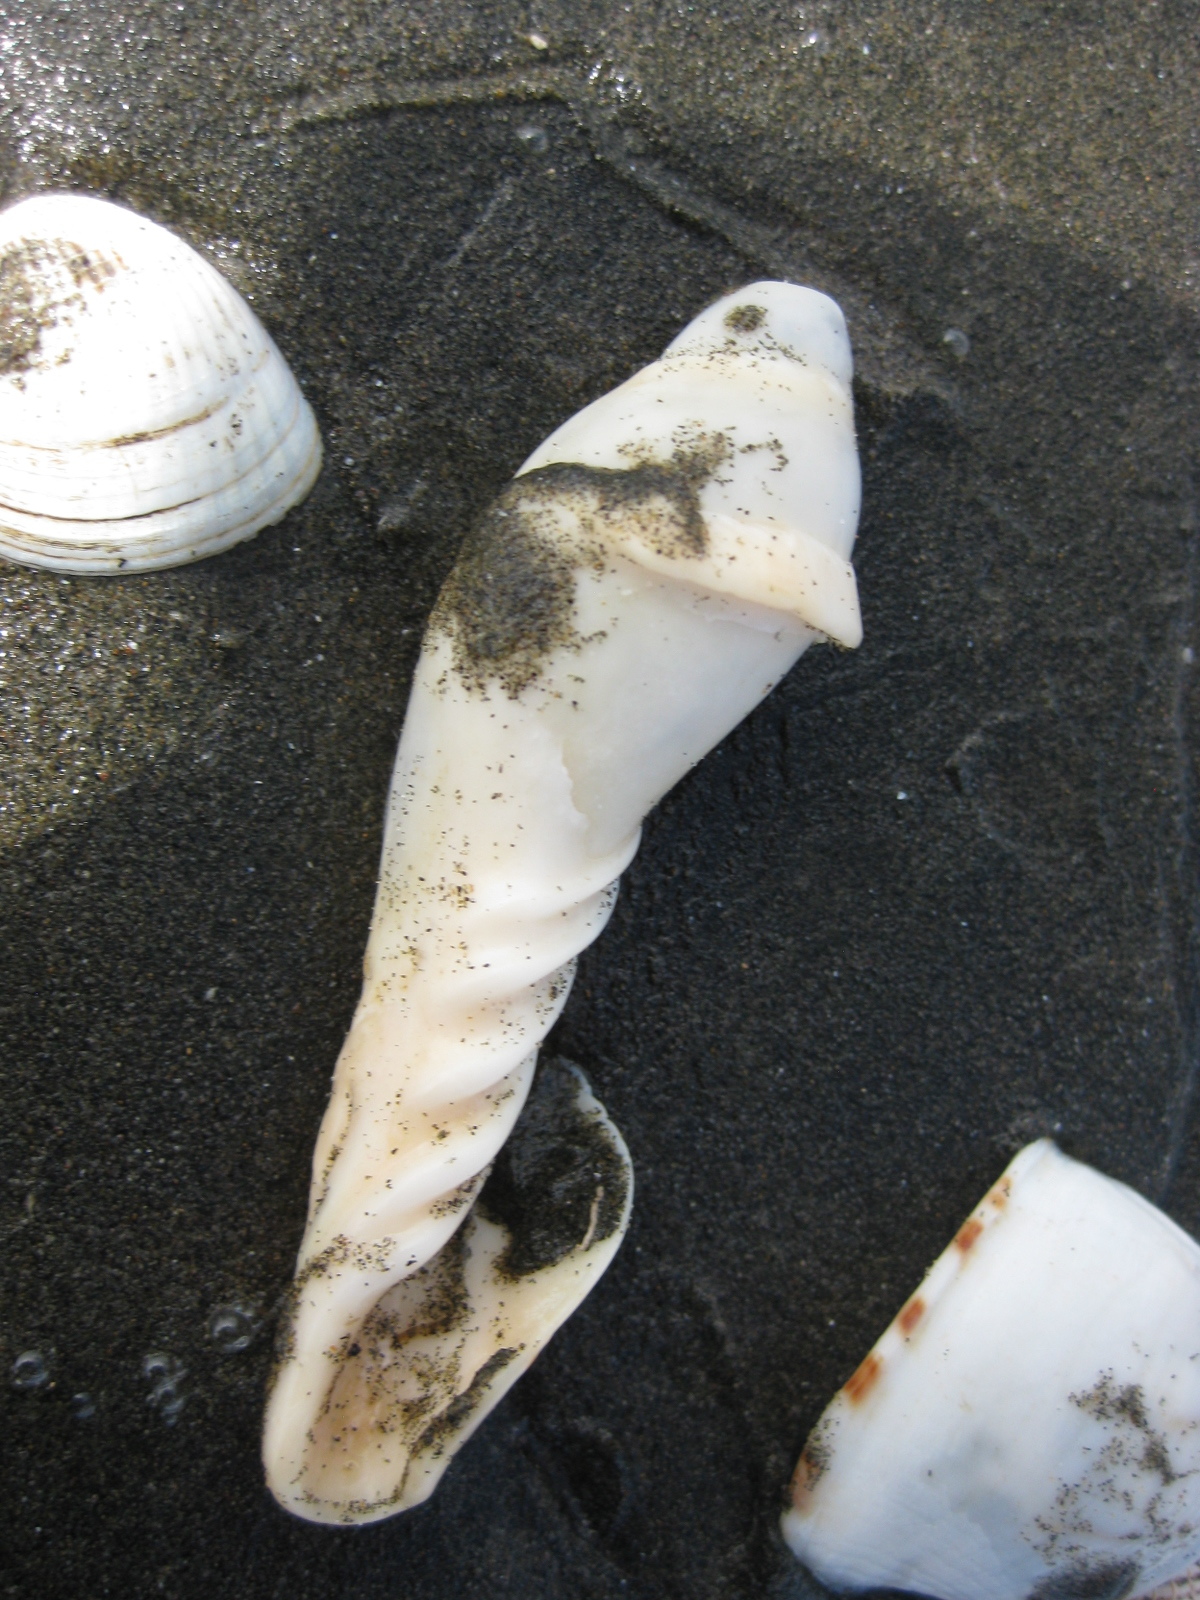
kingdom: Animalia
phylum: Mollusca
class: Gastropoda
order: Neogastropoda
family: Volutidae
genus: Alcithoe
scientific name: Alcithoe arabica
